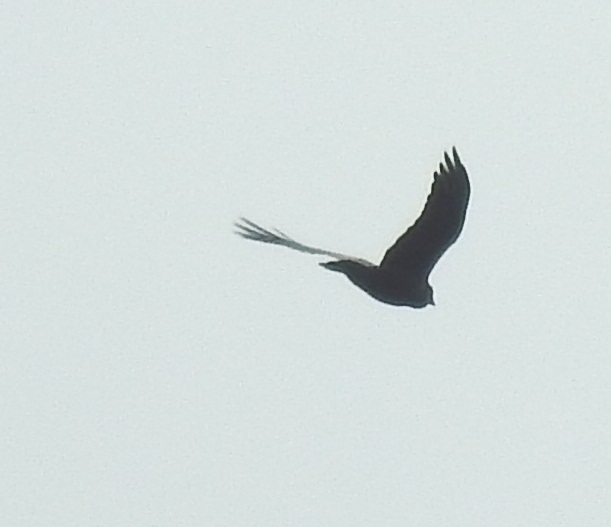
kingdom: Animalia
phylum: Chordata
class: Aves
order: Passeriformes
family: Corvidae
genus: Corvus
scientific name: Corvus corax
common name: Common raven
